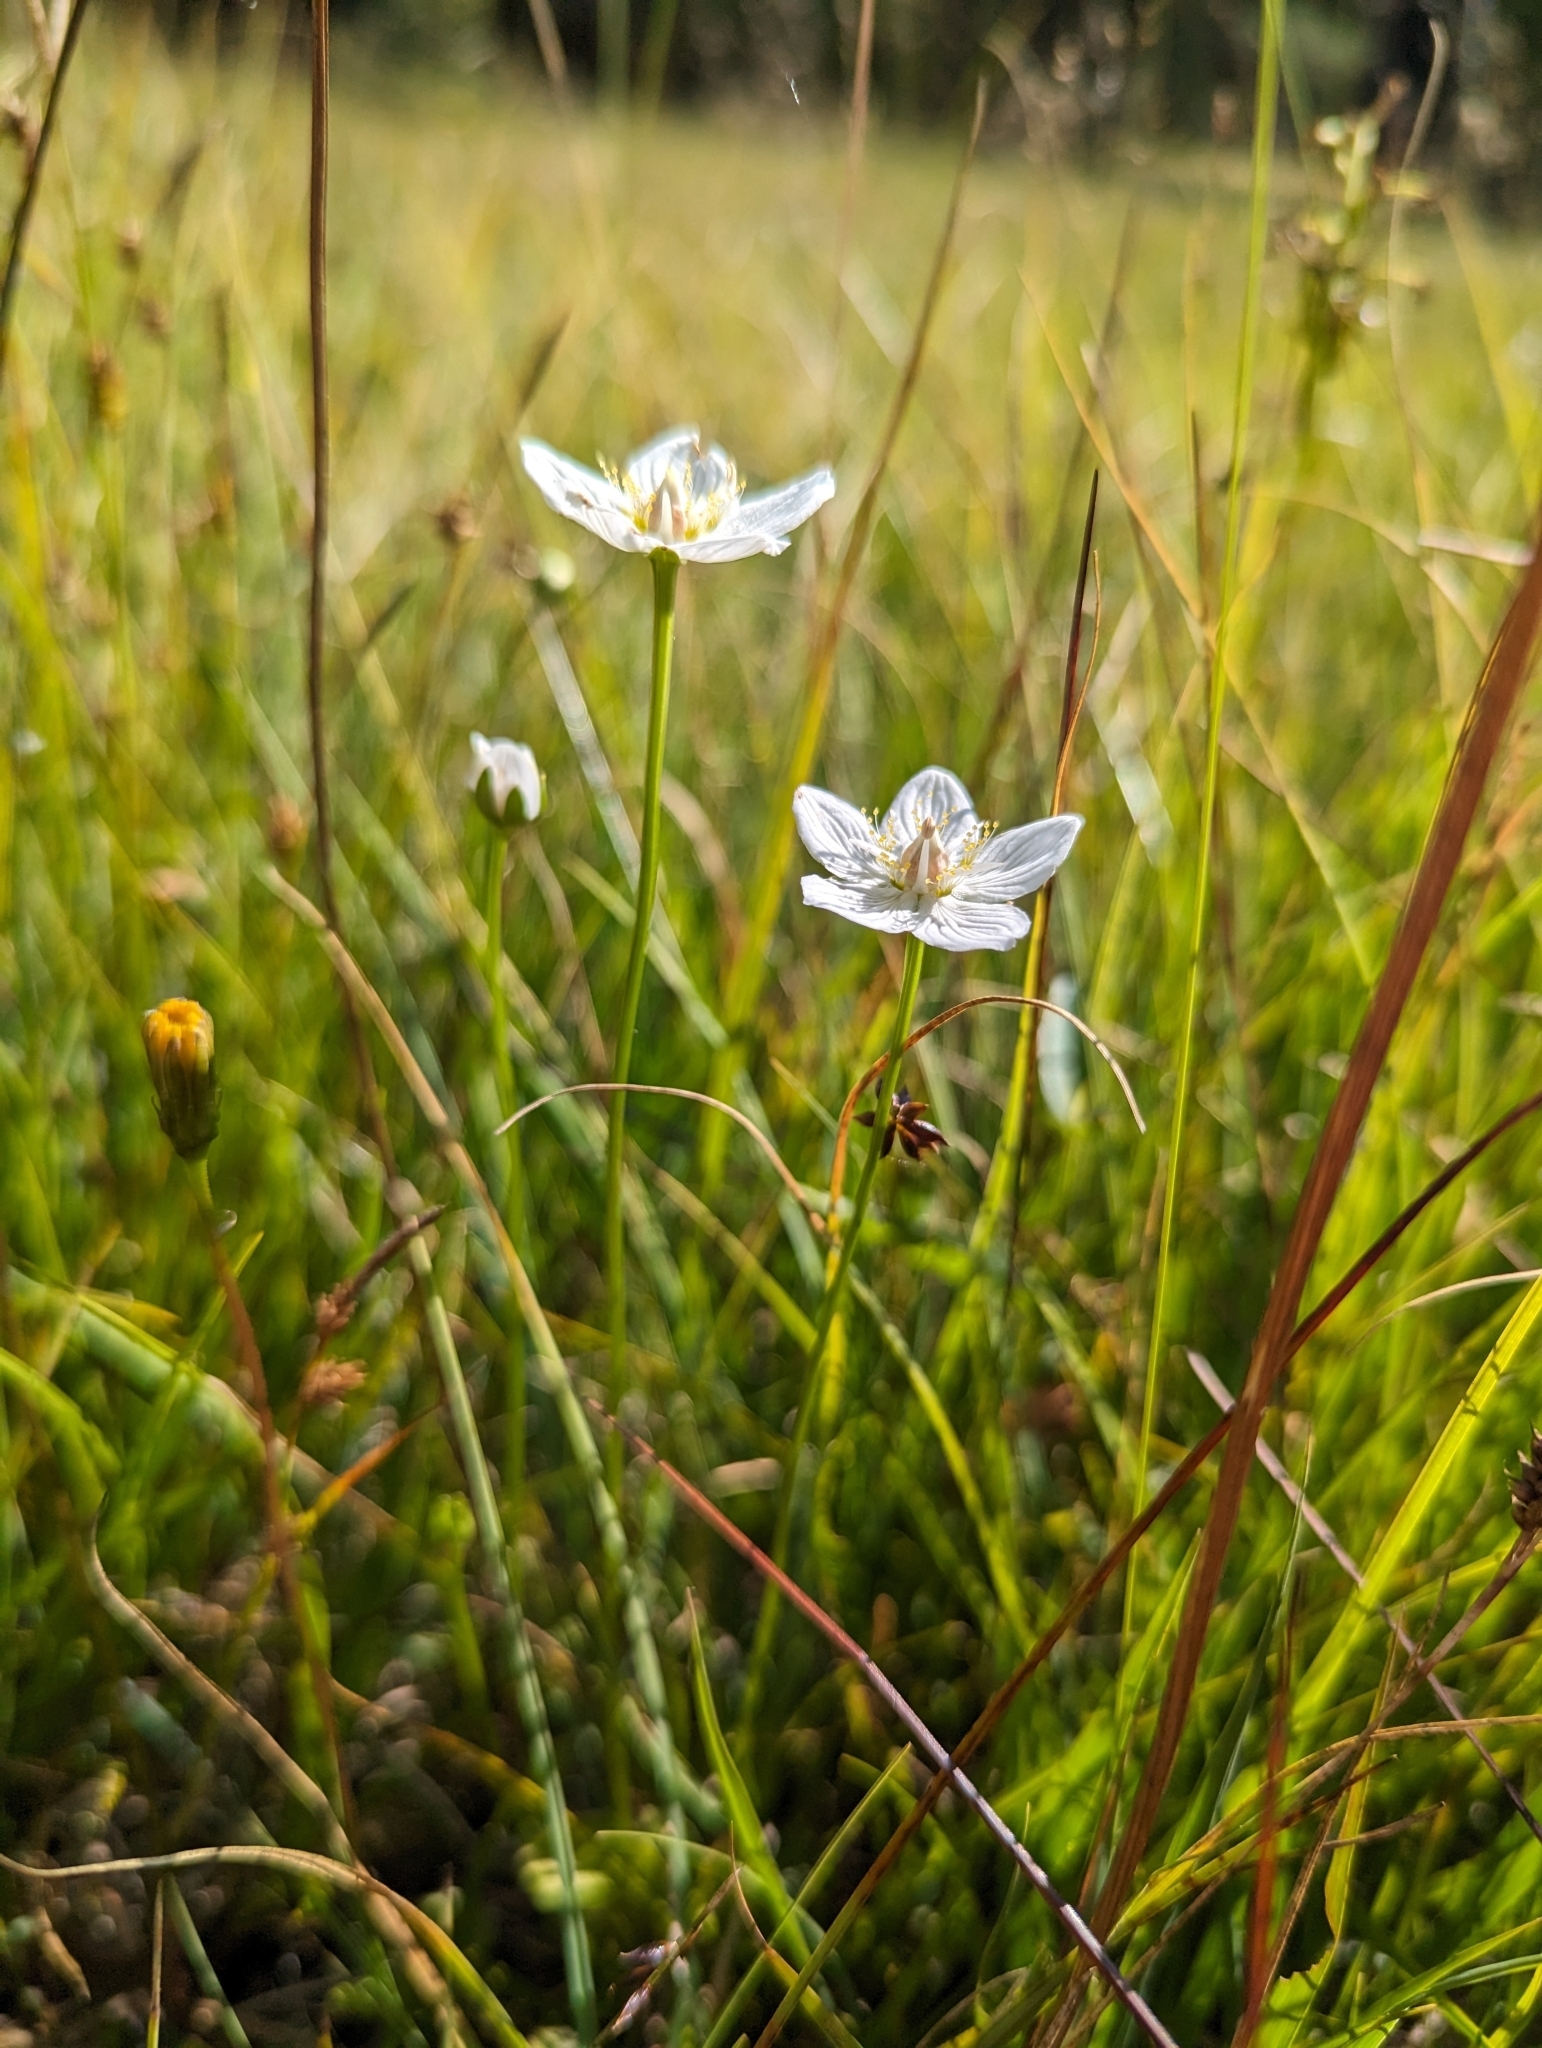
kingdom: Plantae
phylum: Tracheophyta
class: Magnoliopsida
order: Celastrales
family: Parnassiaceae
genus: Parnassia
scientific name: Parnassia palustris
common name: Grass-of-parnassus
